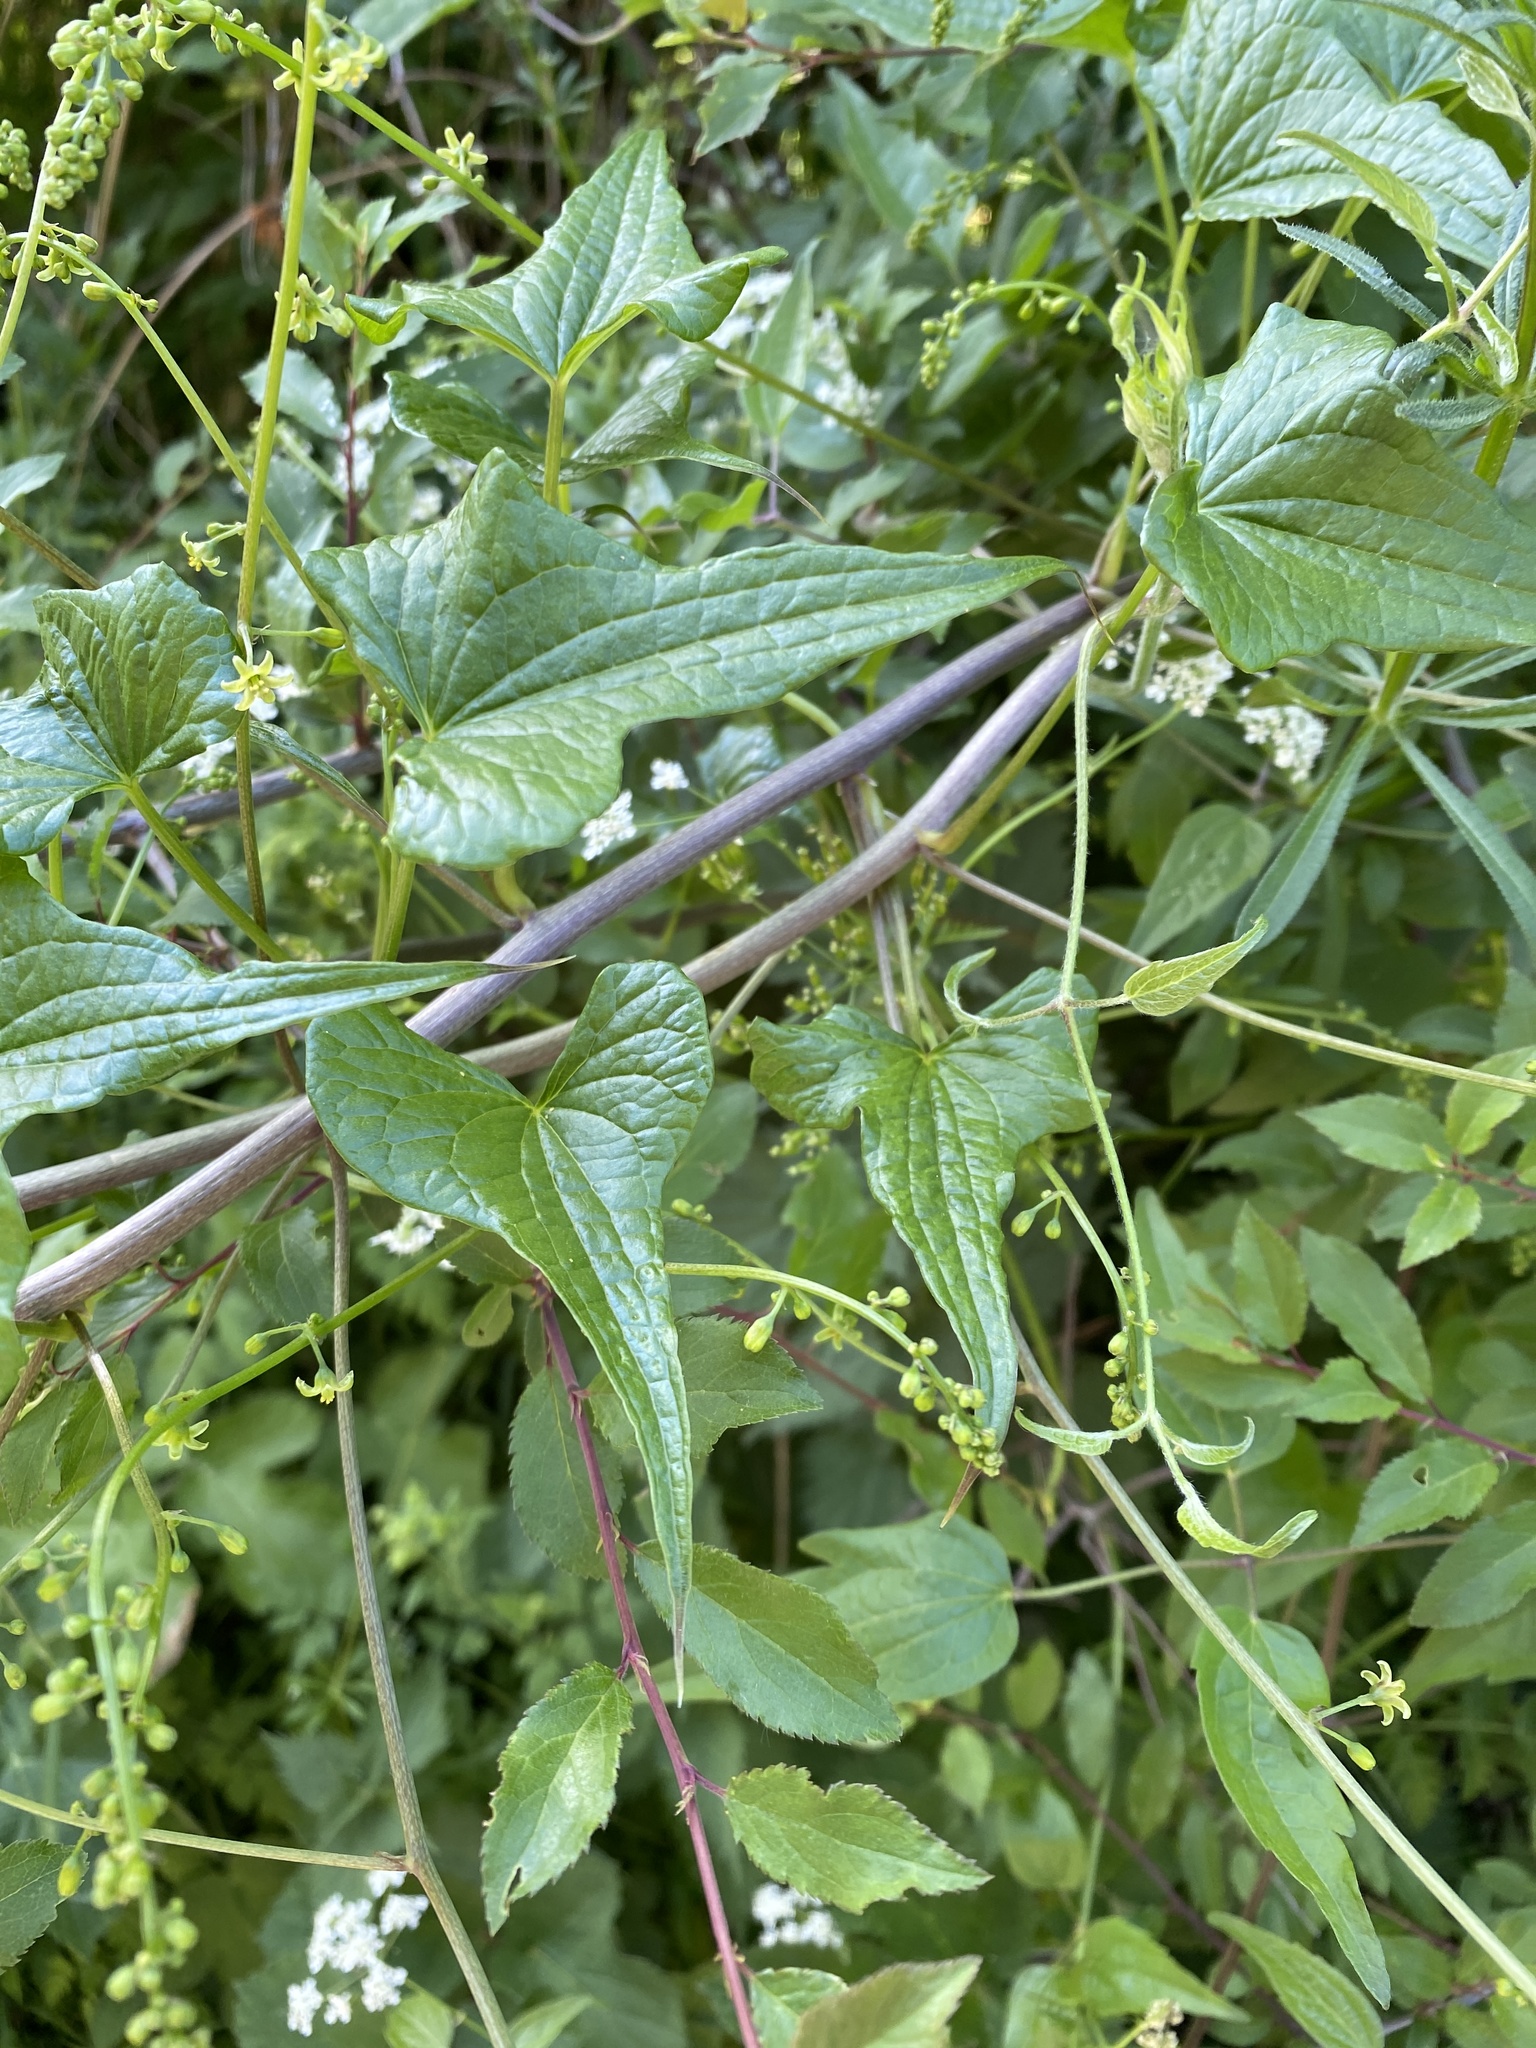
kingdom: Plantae
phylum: Tracheophyta
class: Liliopsida
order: Dioscoreales
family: Dioscoreaceae
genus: Dioscorea
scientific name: Dioscorea communis
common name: Black-bindweed
